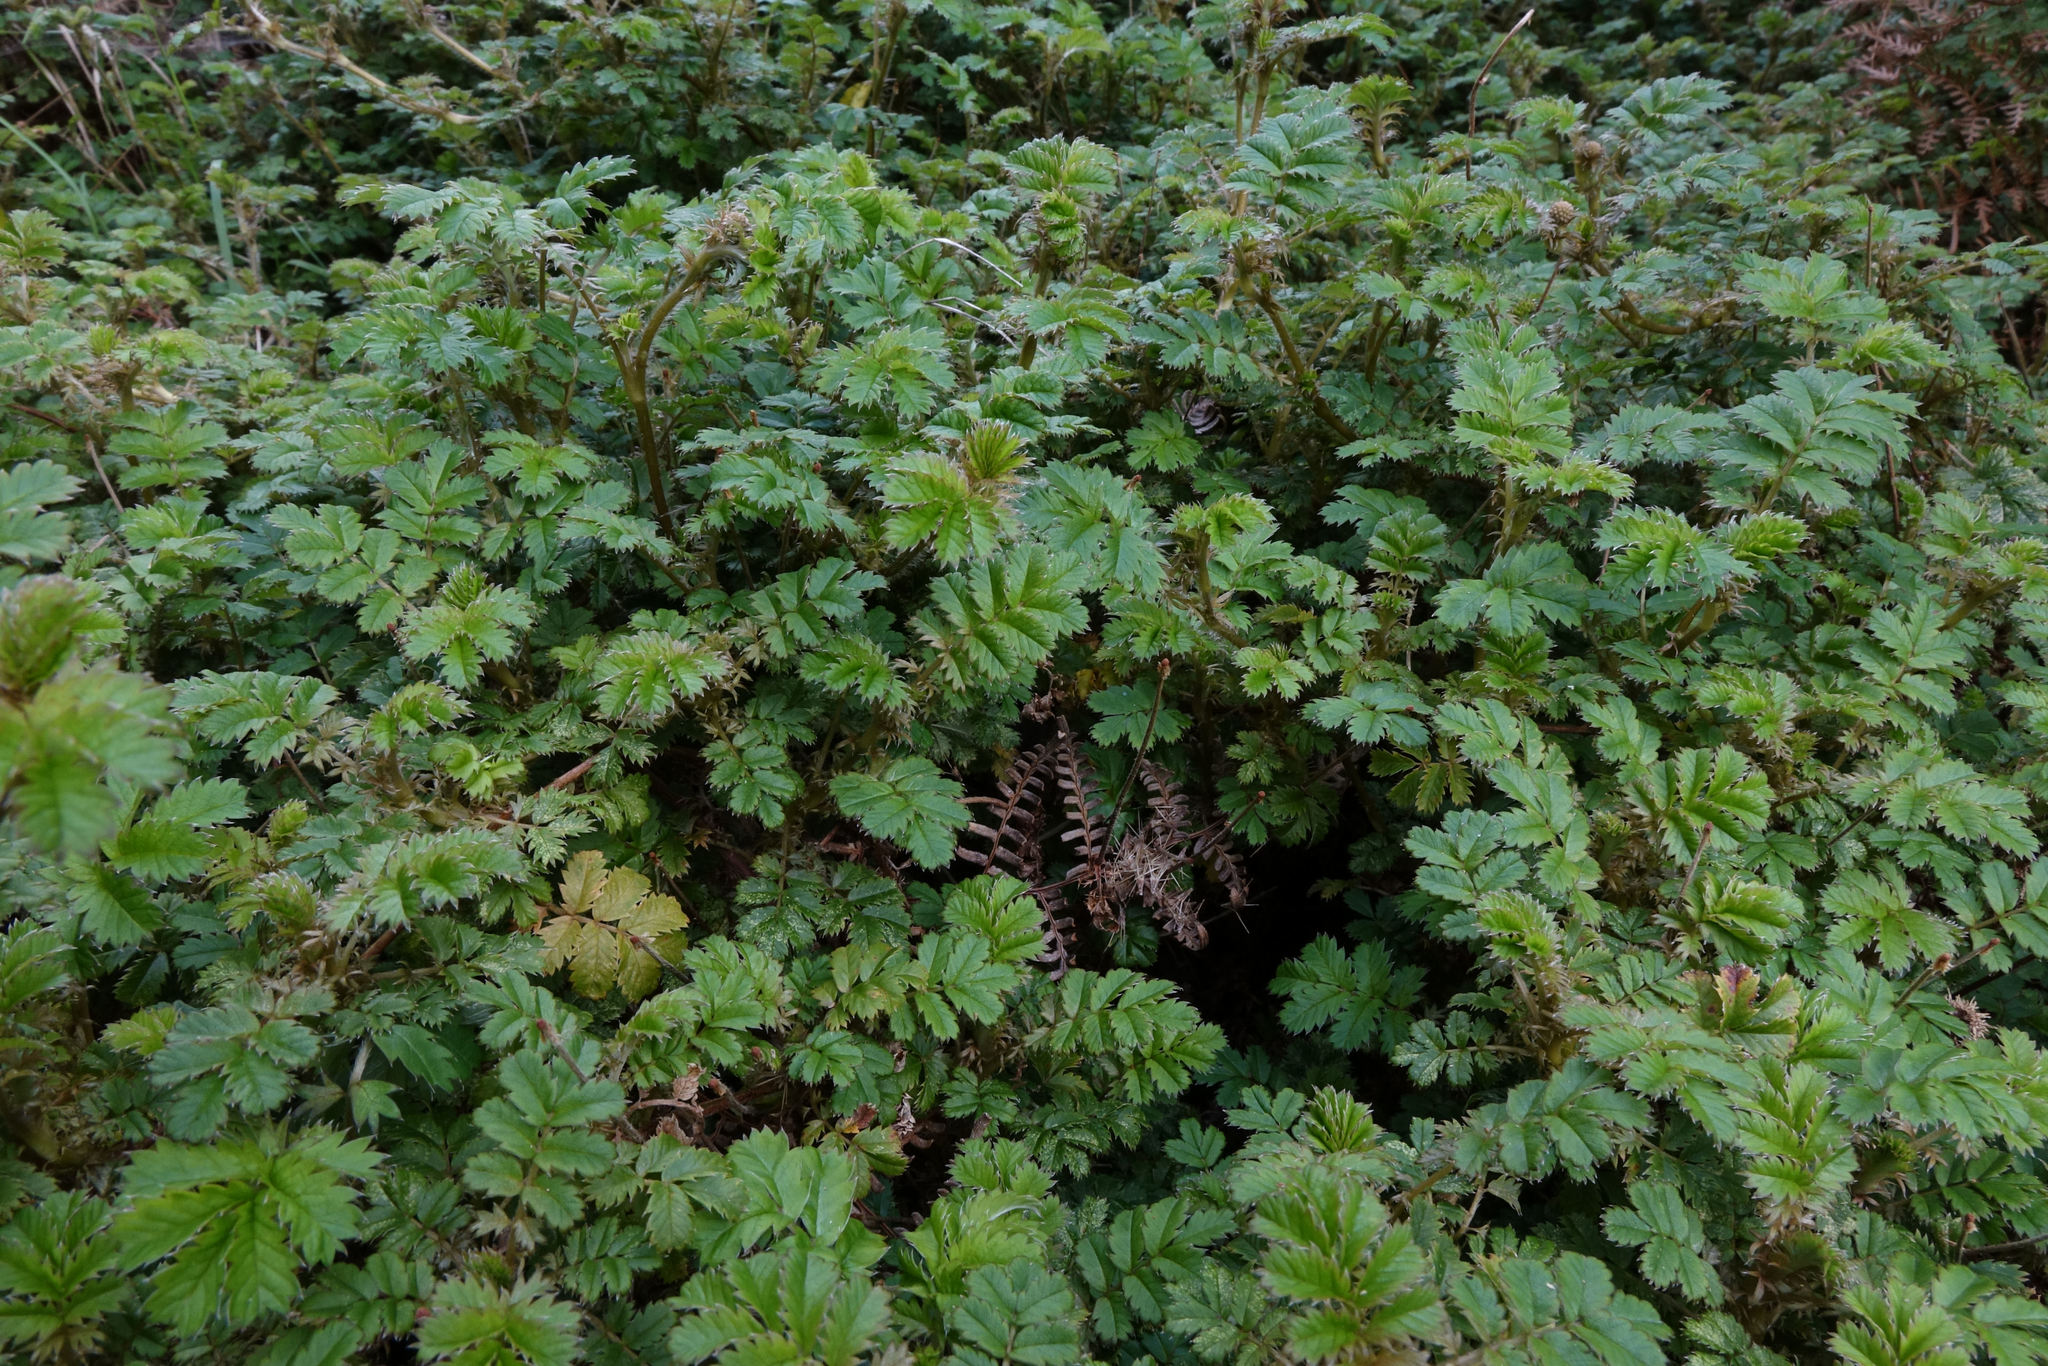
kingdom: Plantae
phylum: Tracheophyta
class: Magnoliopsida
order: Rosales
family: Rosaceae
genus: Acaena
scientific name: Acaena anserinifolia
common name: Bronze pirri-pirri-bur
